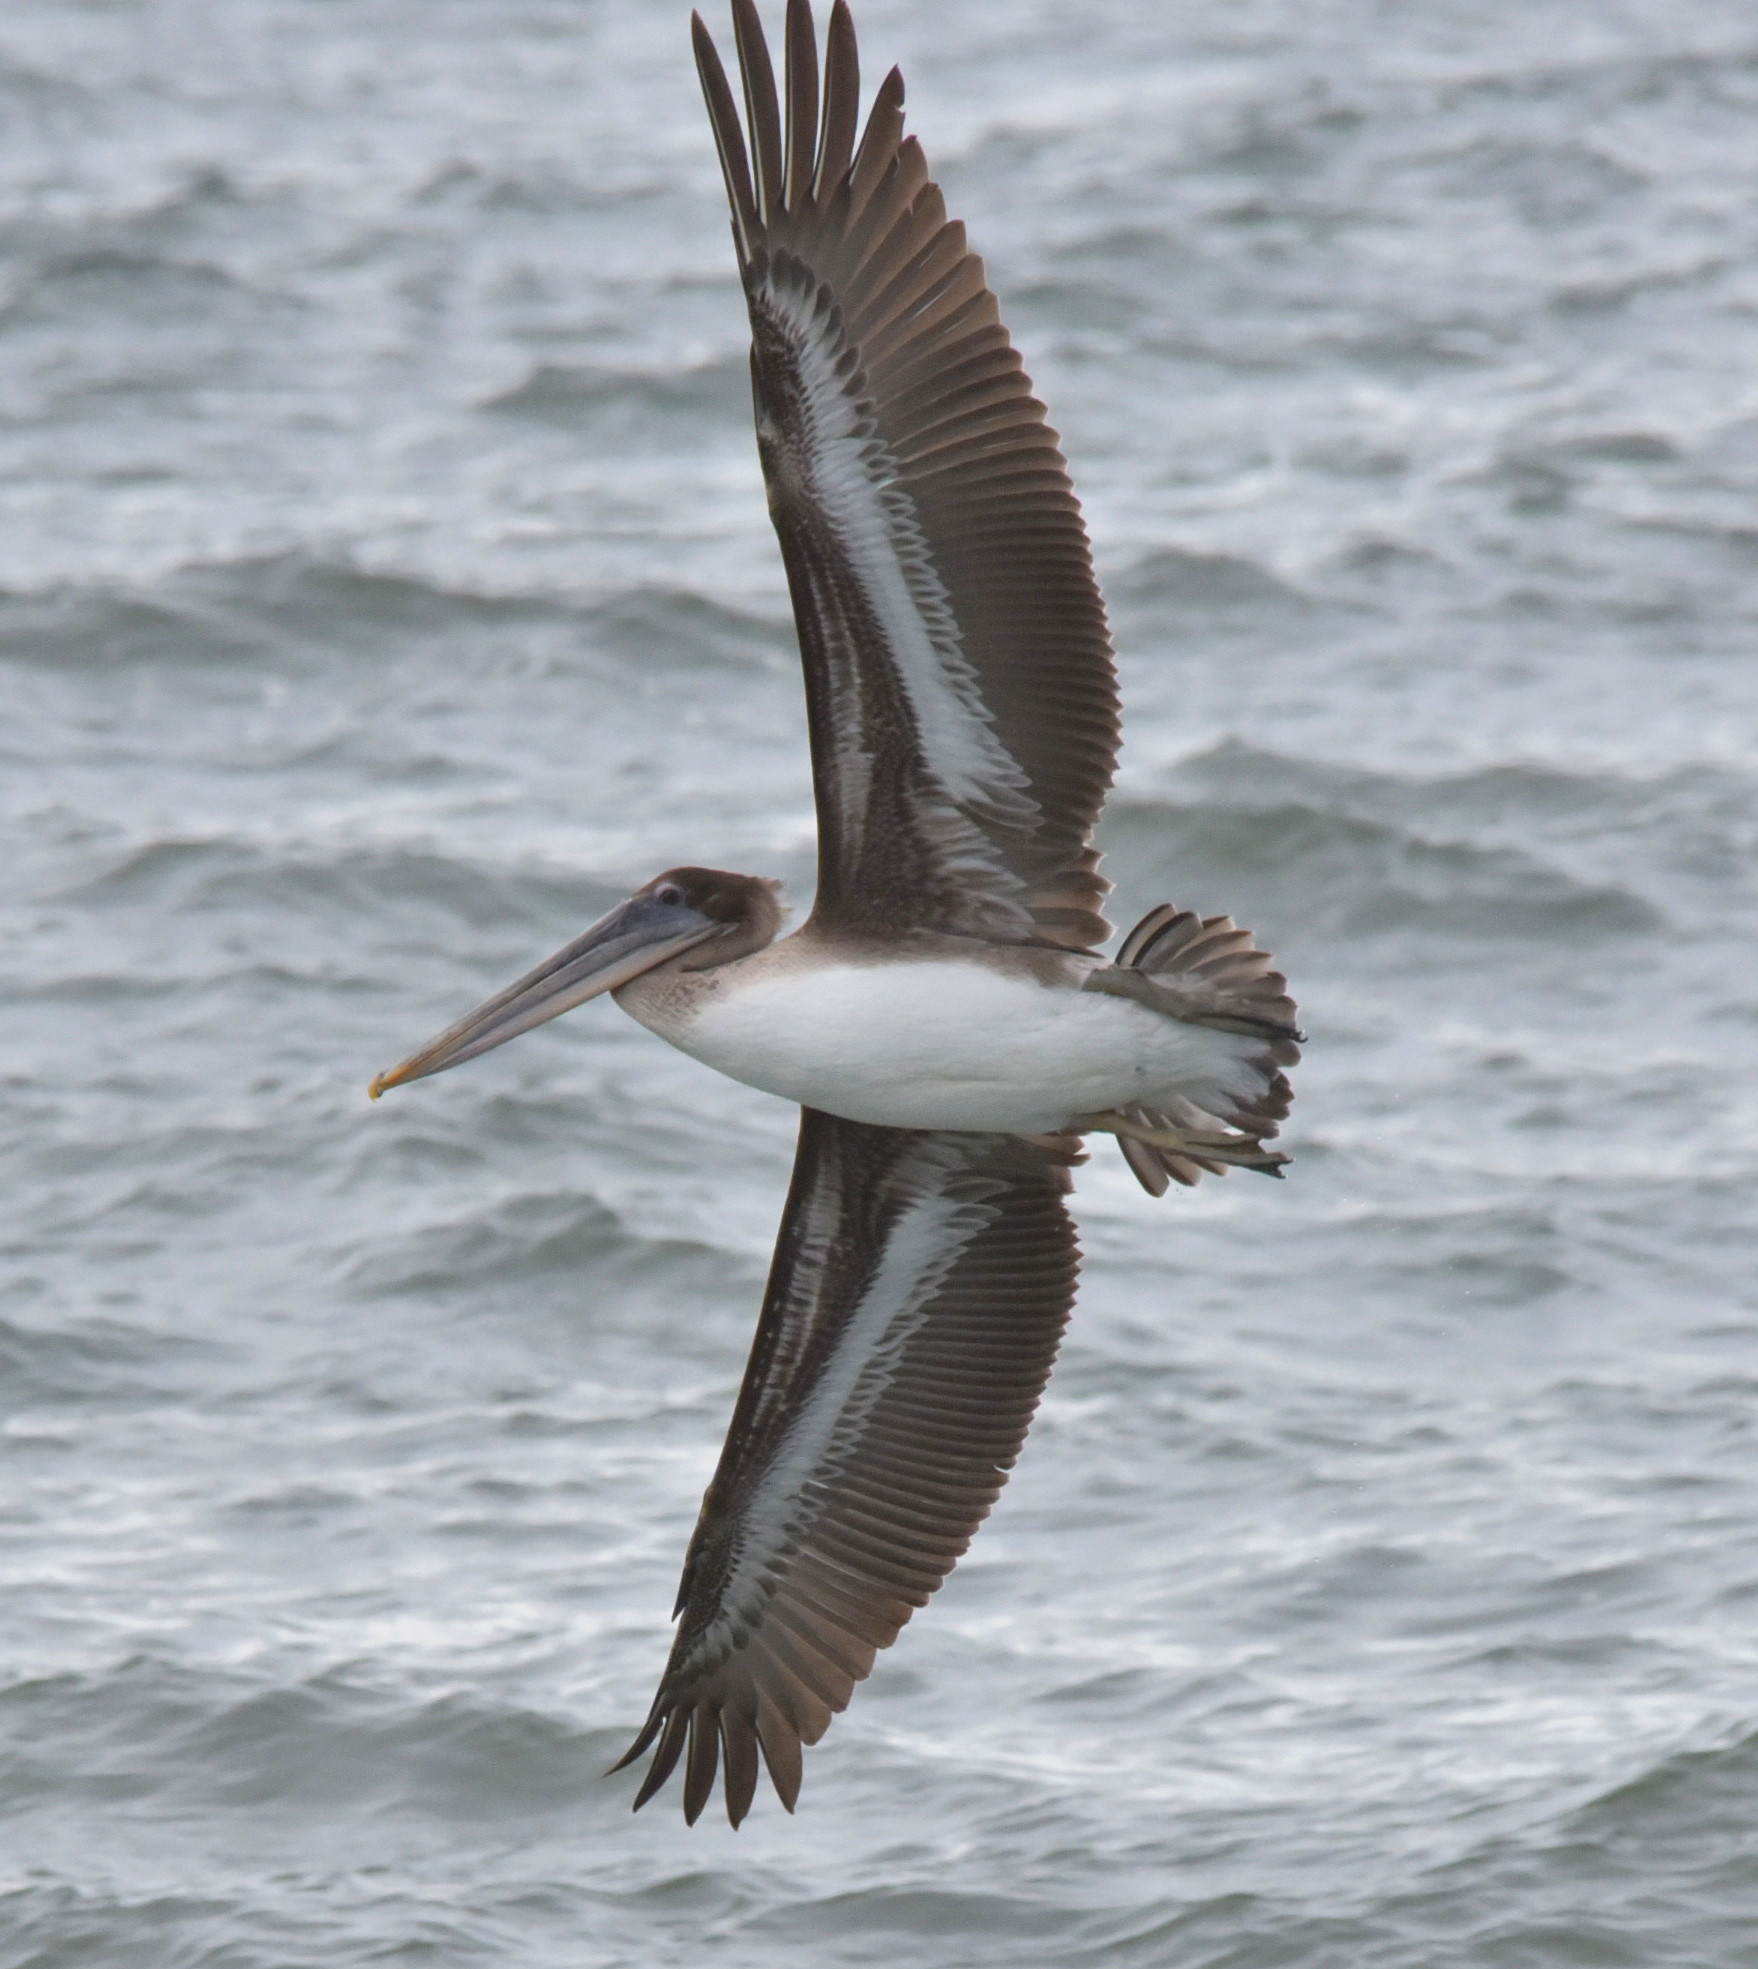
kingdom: Animalia
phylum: Chordata
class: Aves
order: Pelecaniformes
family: Pelecanidae
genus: Pelecanus
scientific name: Pelecanus occidentalis
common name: Brown pelican
